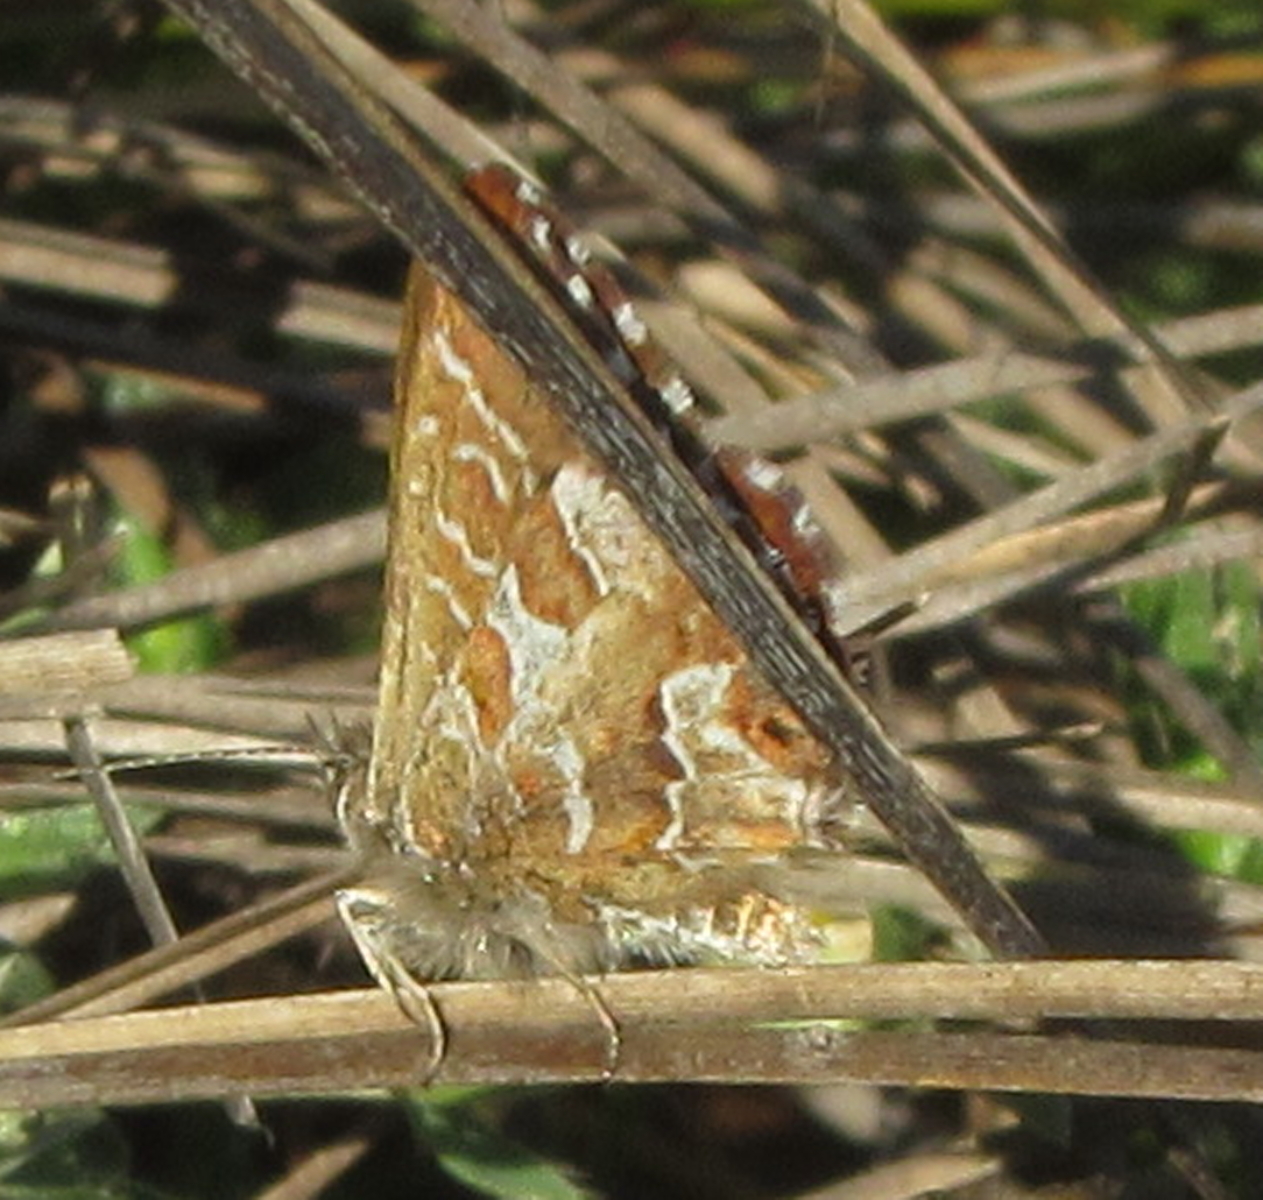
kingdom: Animalia
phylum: Arthropoda
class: Insecta
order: Lepidoptera
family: Lycaenidae
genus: Cacyreus
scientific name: Cacyreus
